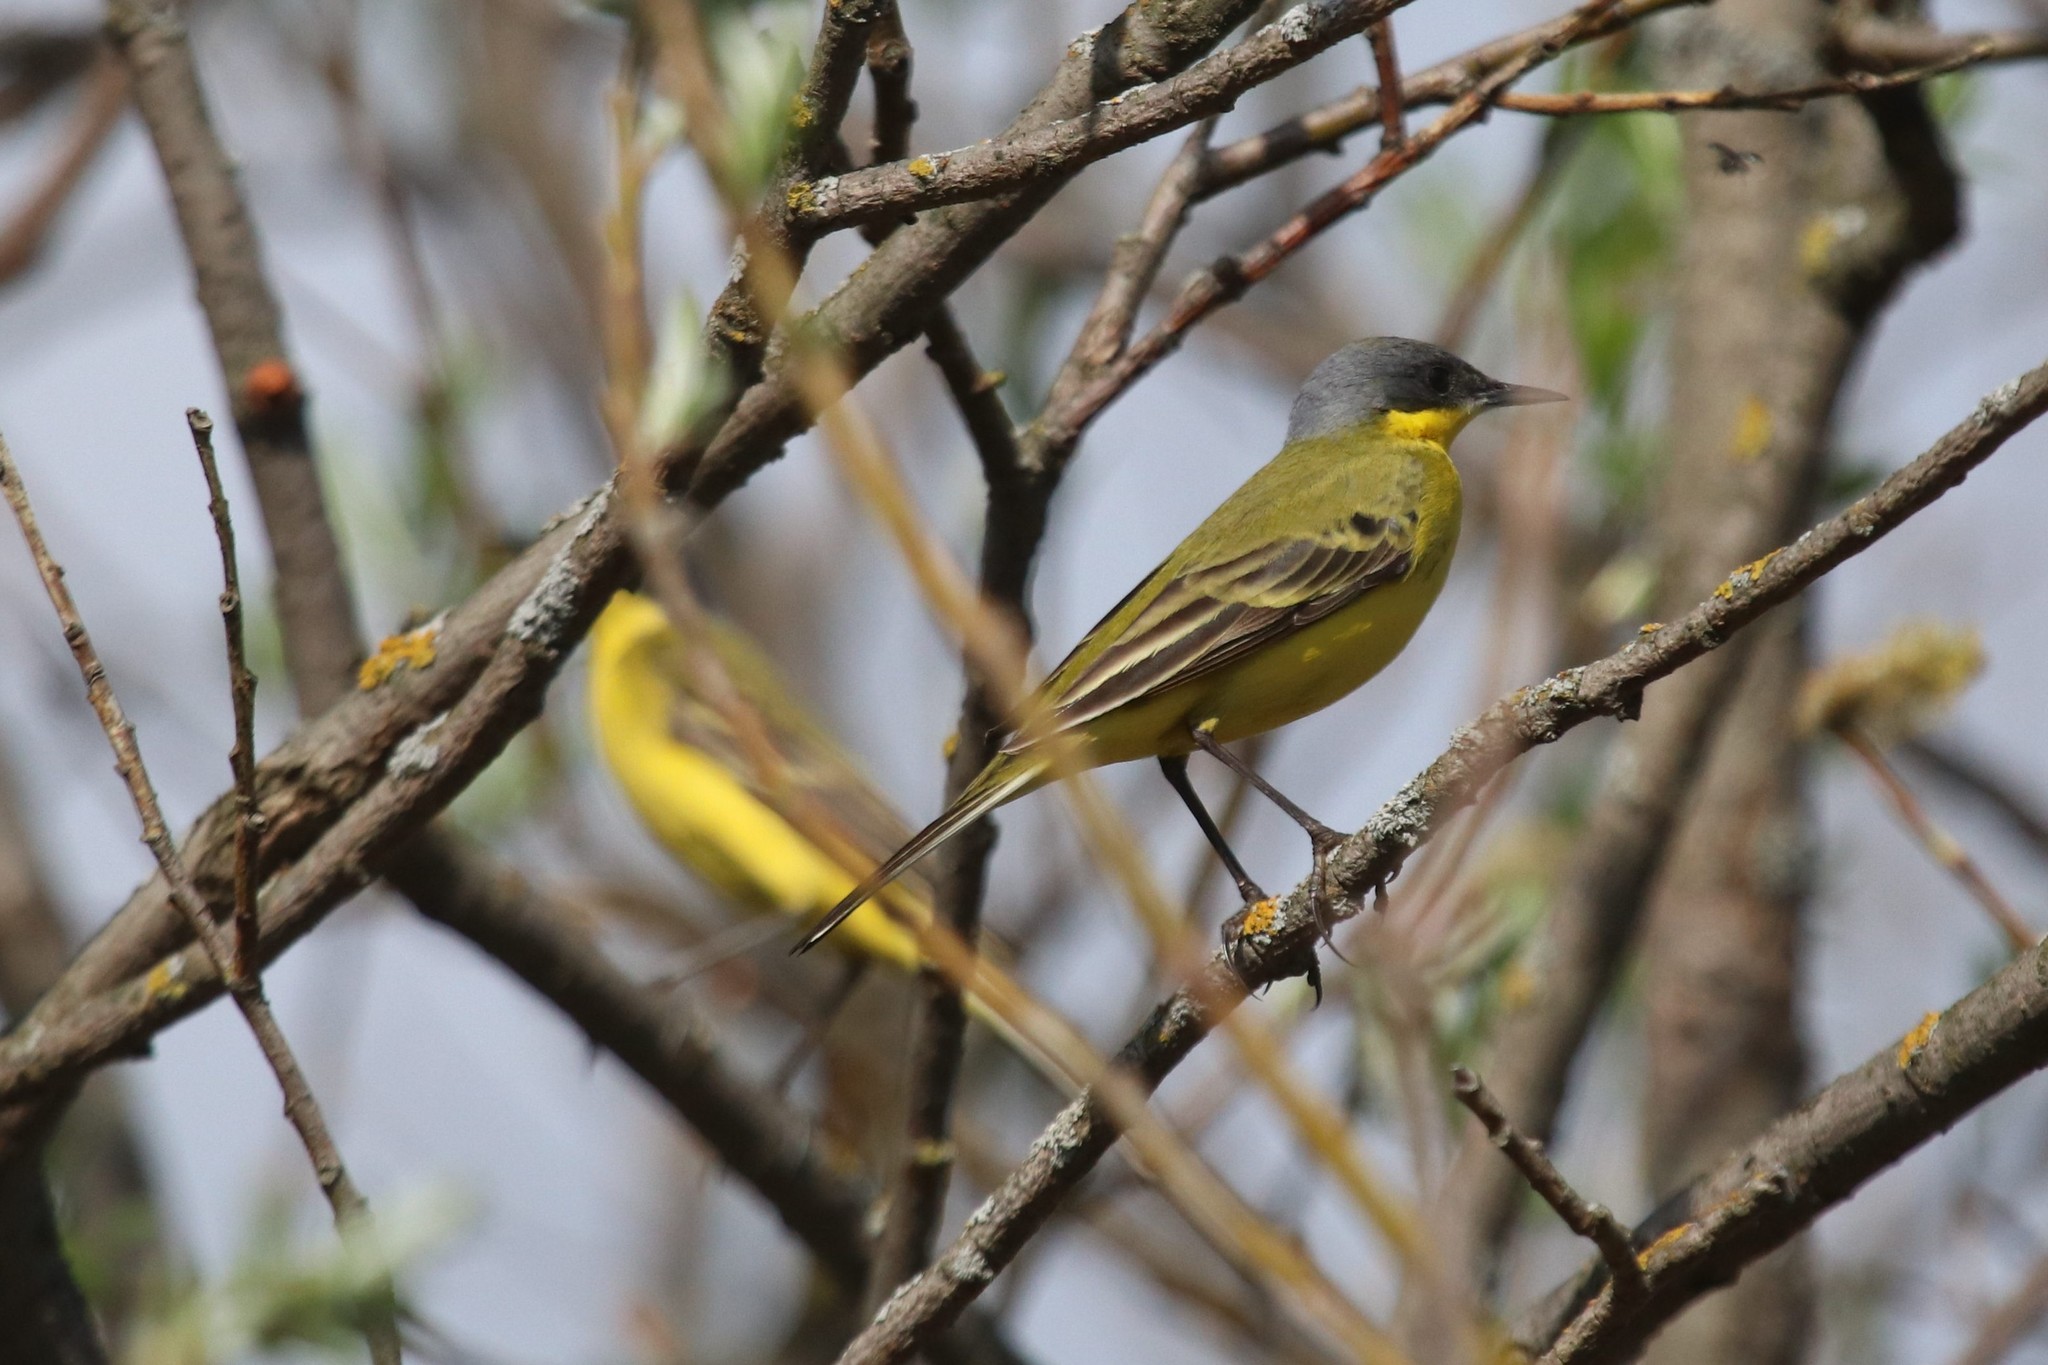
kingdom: Animalia
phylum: Chordata
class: Aves
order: Passeriformes
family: Motacillidae
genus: Motacilla
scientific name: Motacilla flava
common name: Western yellow wagtail
